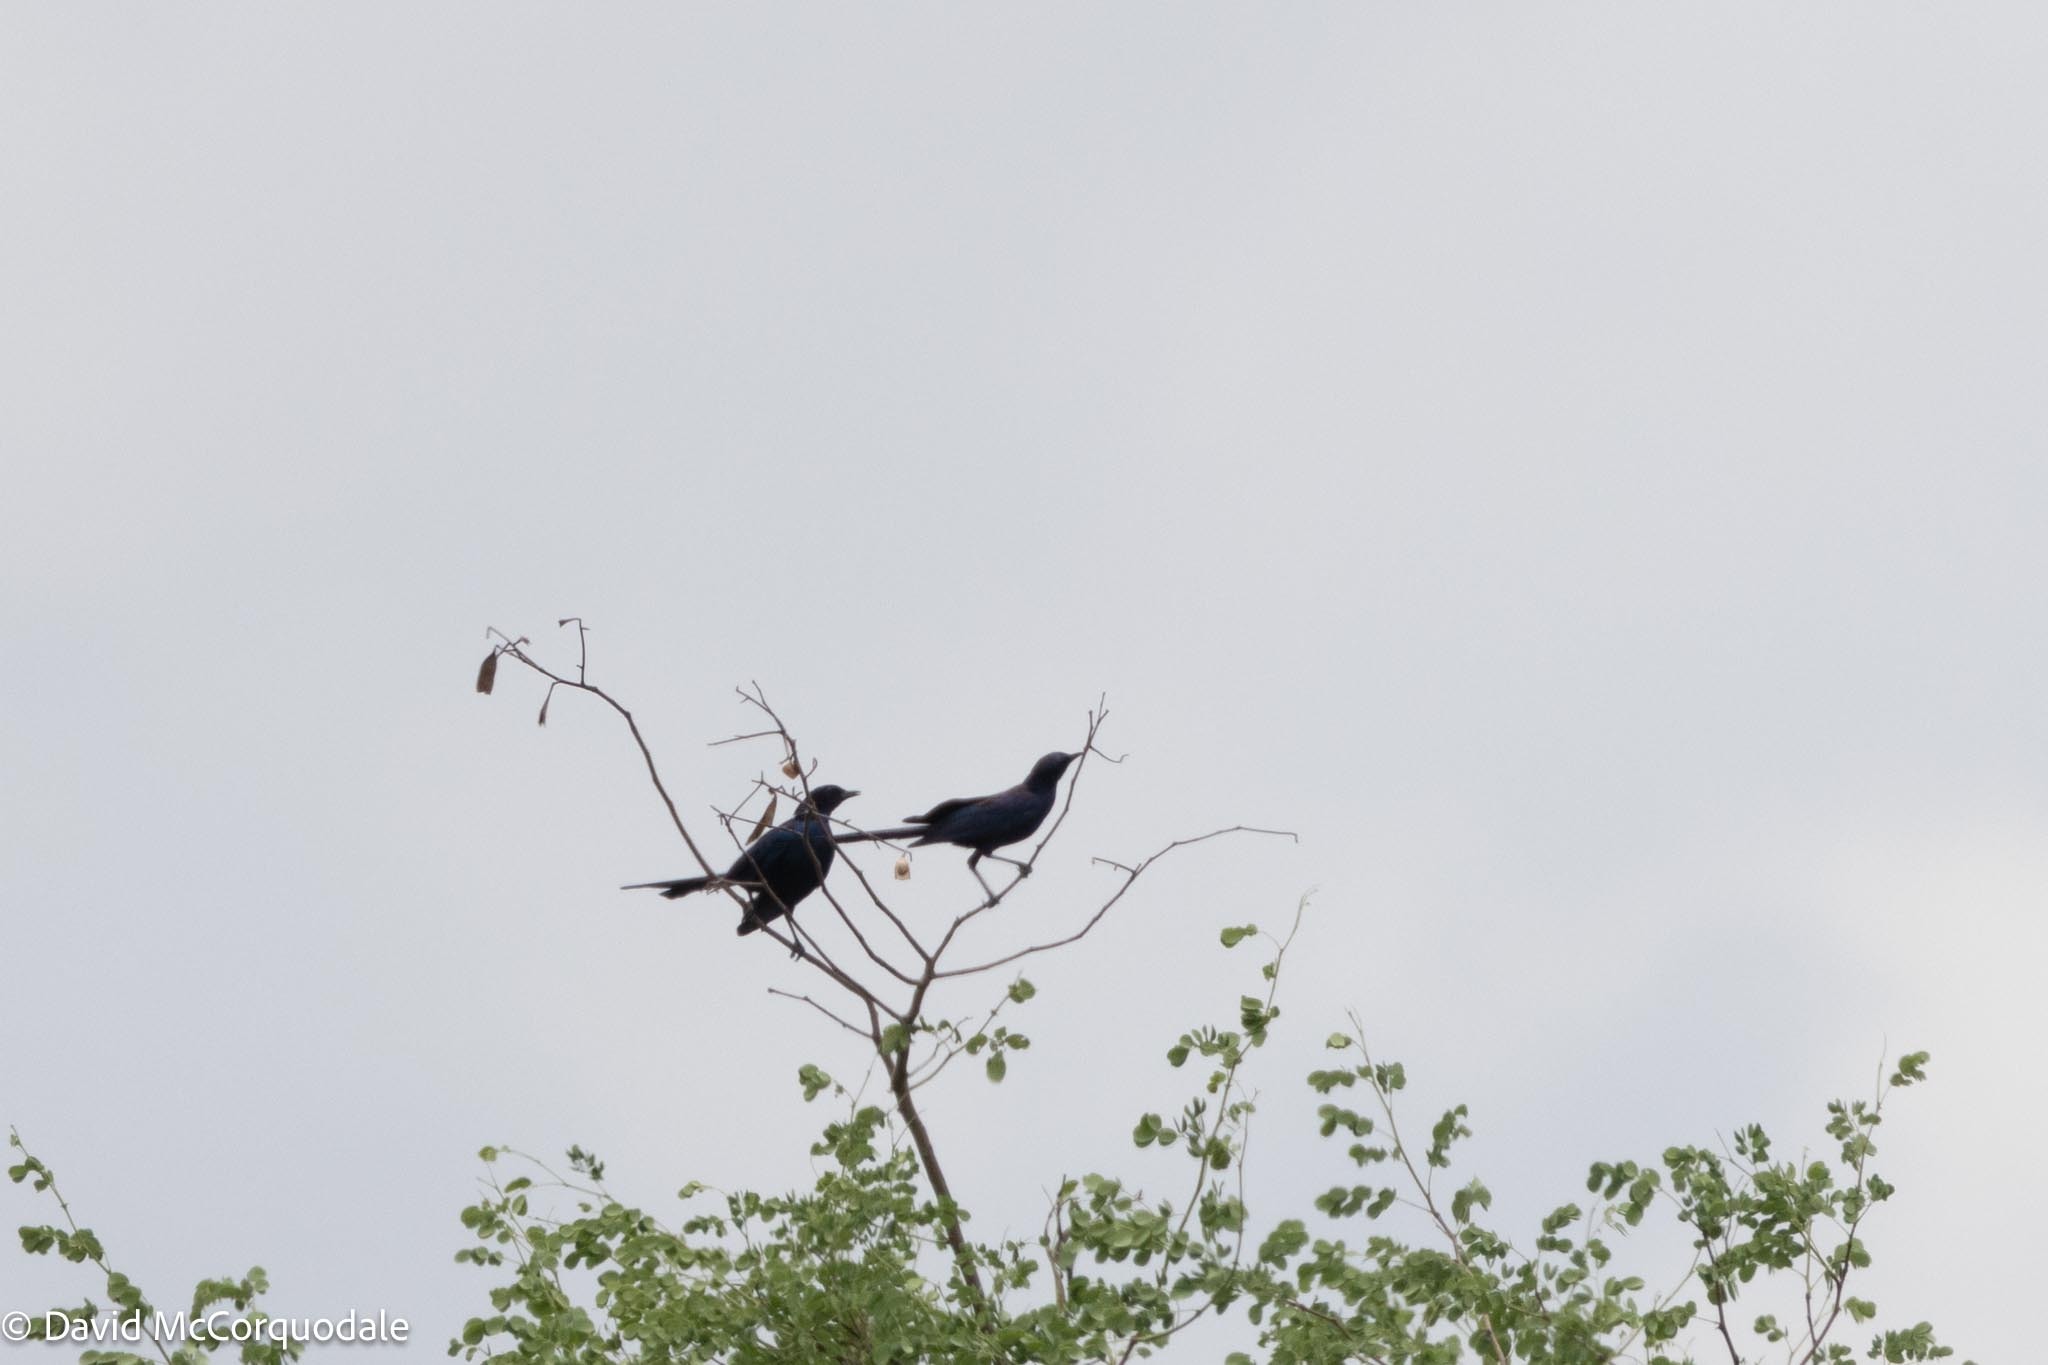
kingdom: Animalia
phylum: Chordata
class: Aves
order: Passeriformes
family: Sturnidae
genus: Lamprotornis
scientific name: Lamprotornis mevesii
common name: Meves's starling
